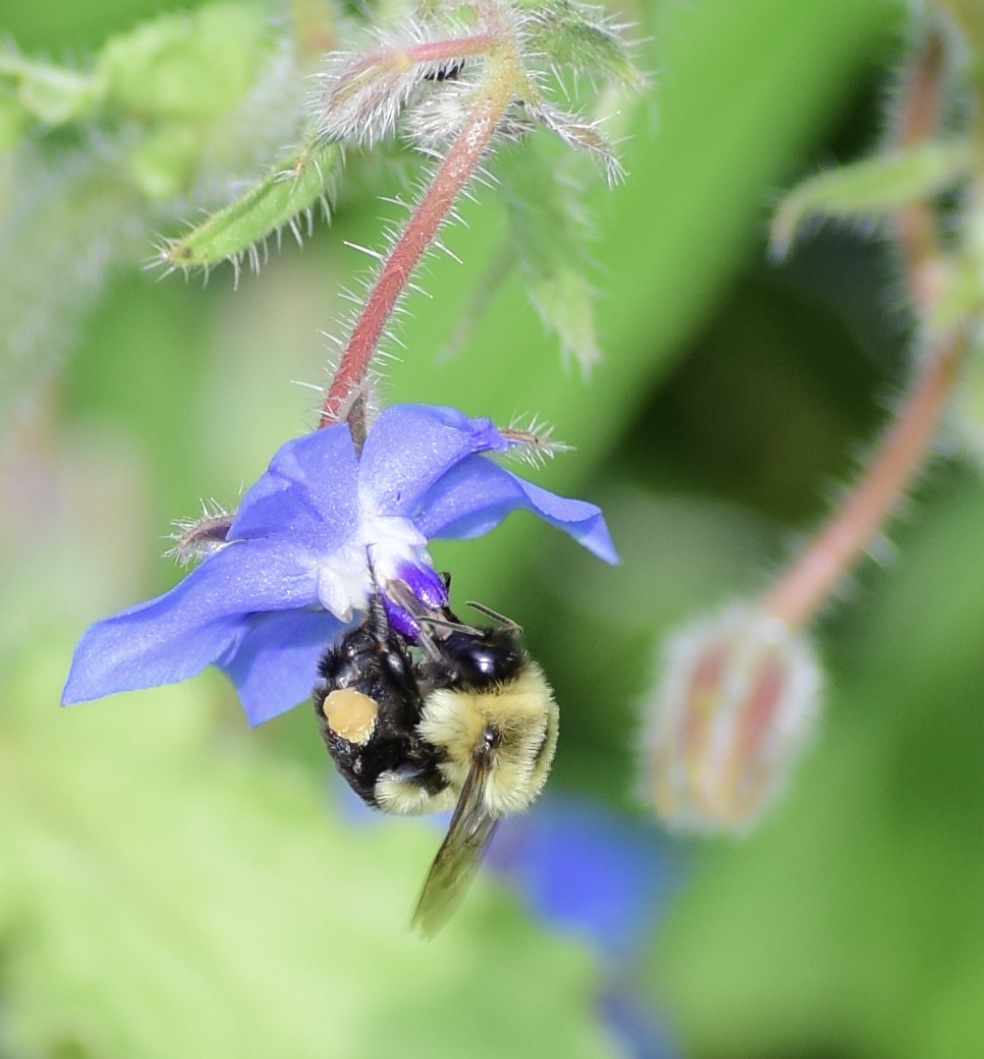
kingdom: Animalia
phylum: Arthropoda
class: Insecta
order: Hymenoptera
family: Apidae
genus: Bombus
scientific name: Bombus impatiens
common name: Common eastern bumble bee
